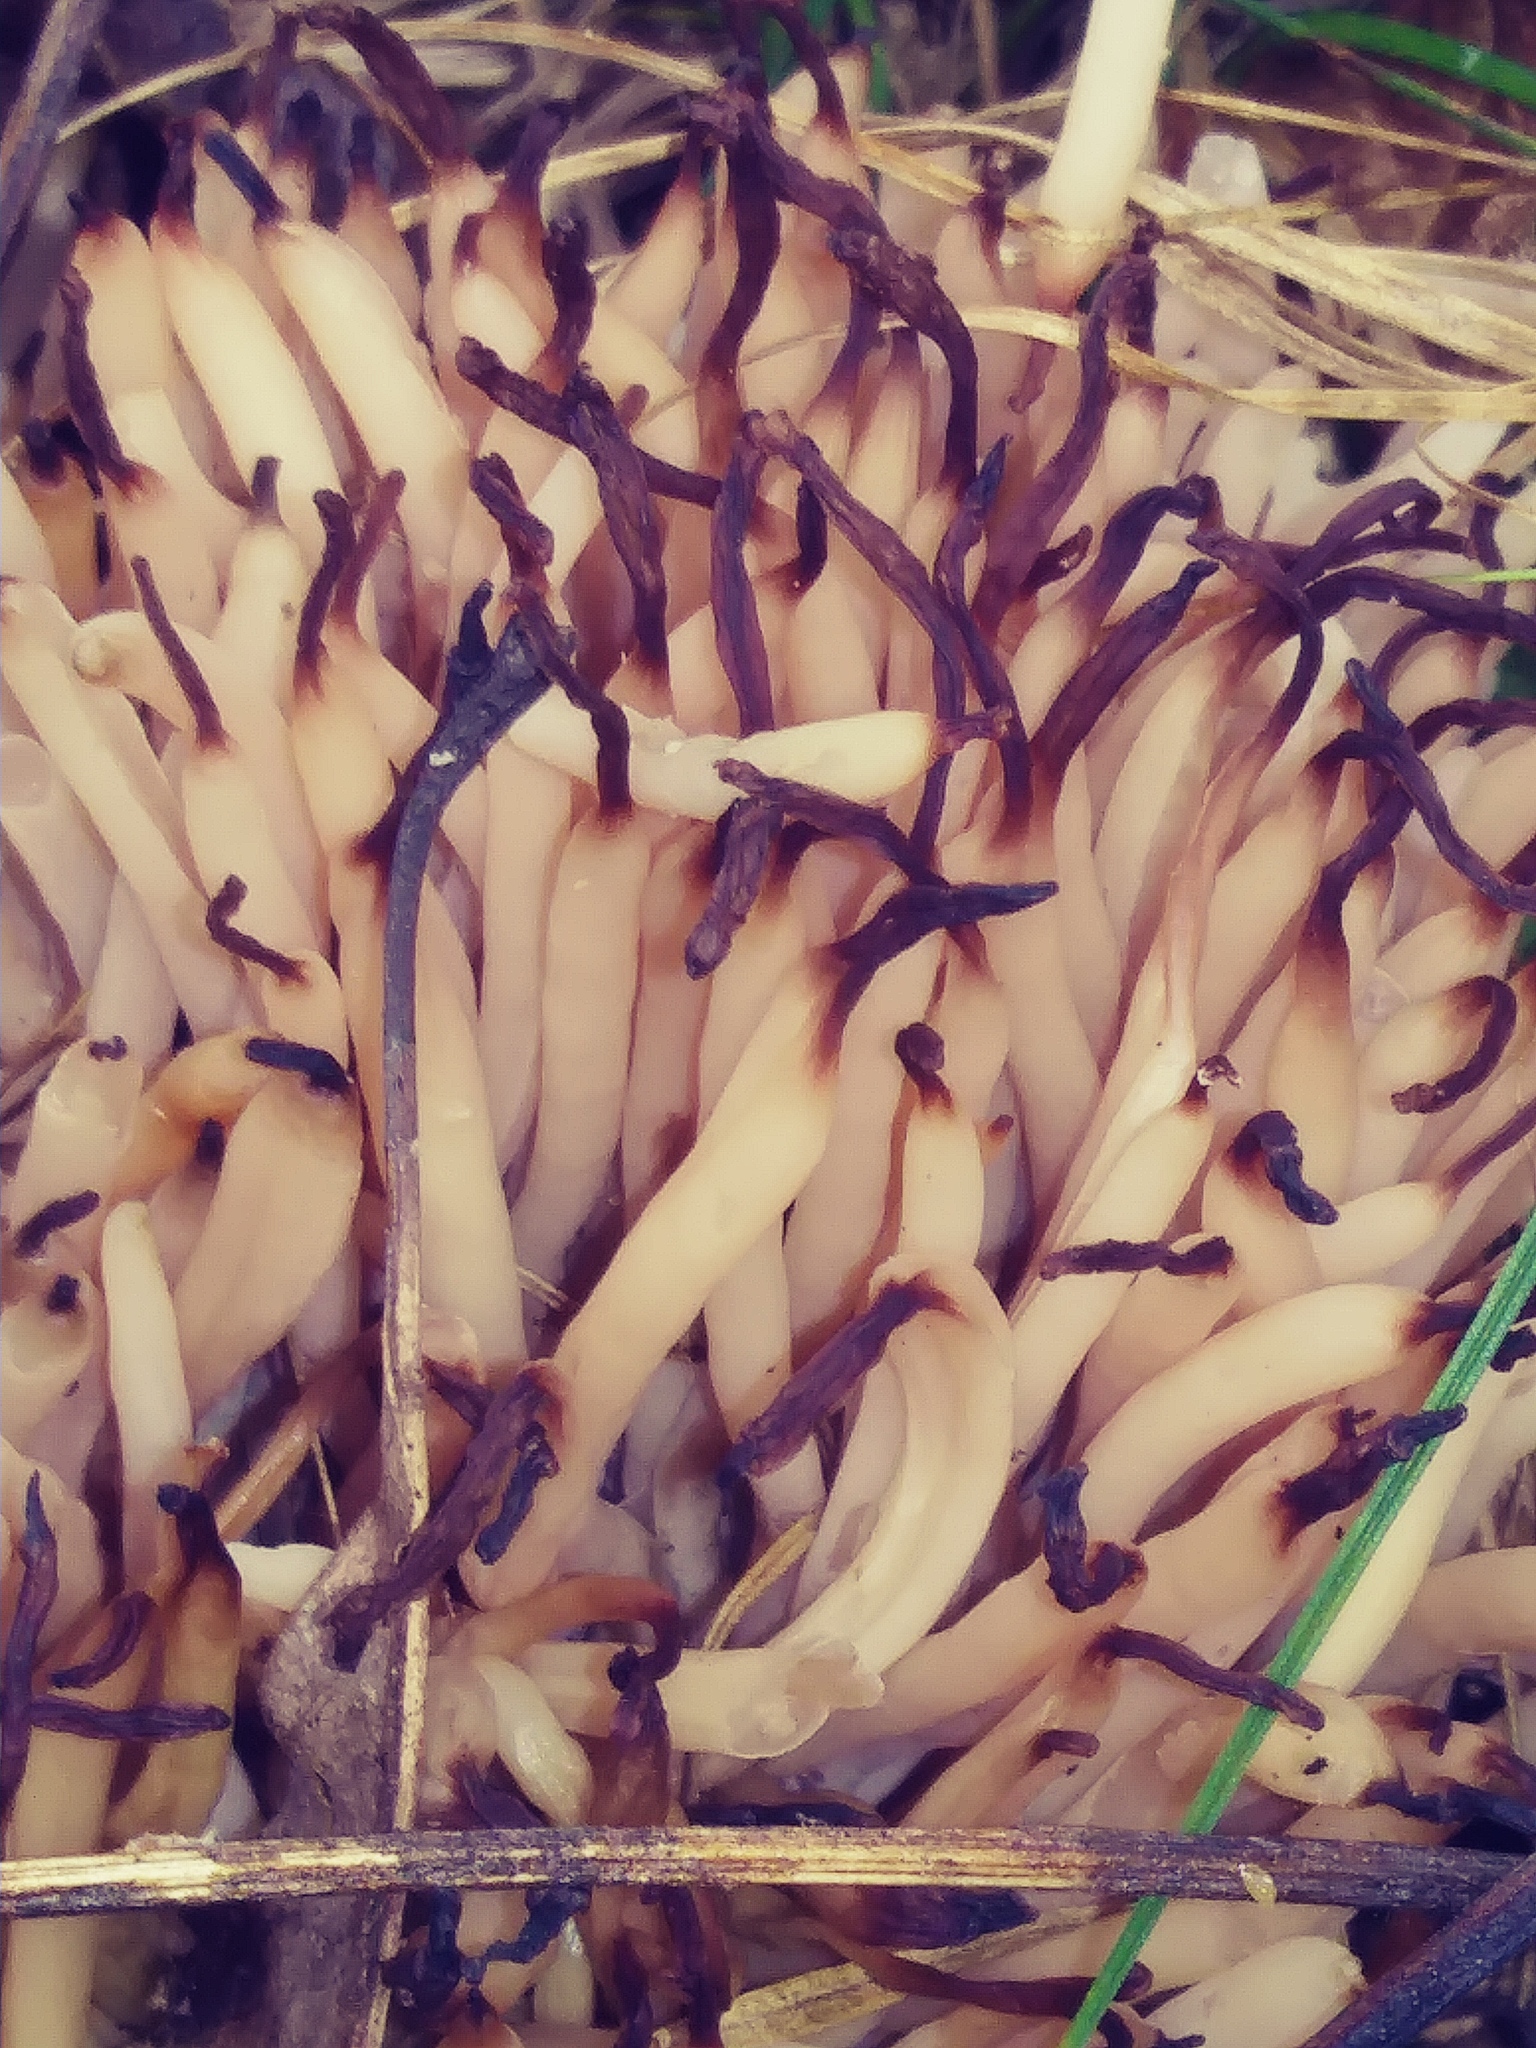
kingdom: Fungi
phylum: Basidiomycota
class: Agaricomycetes
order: Agaricales
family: Clavariaceae
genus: Clavaria
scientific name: Clavaria fumosa
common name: Smoky spindles
